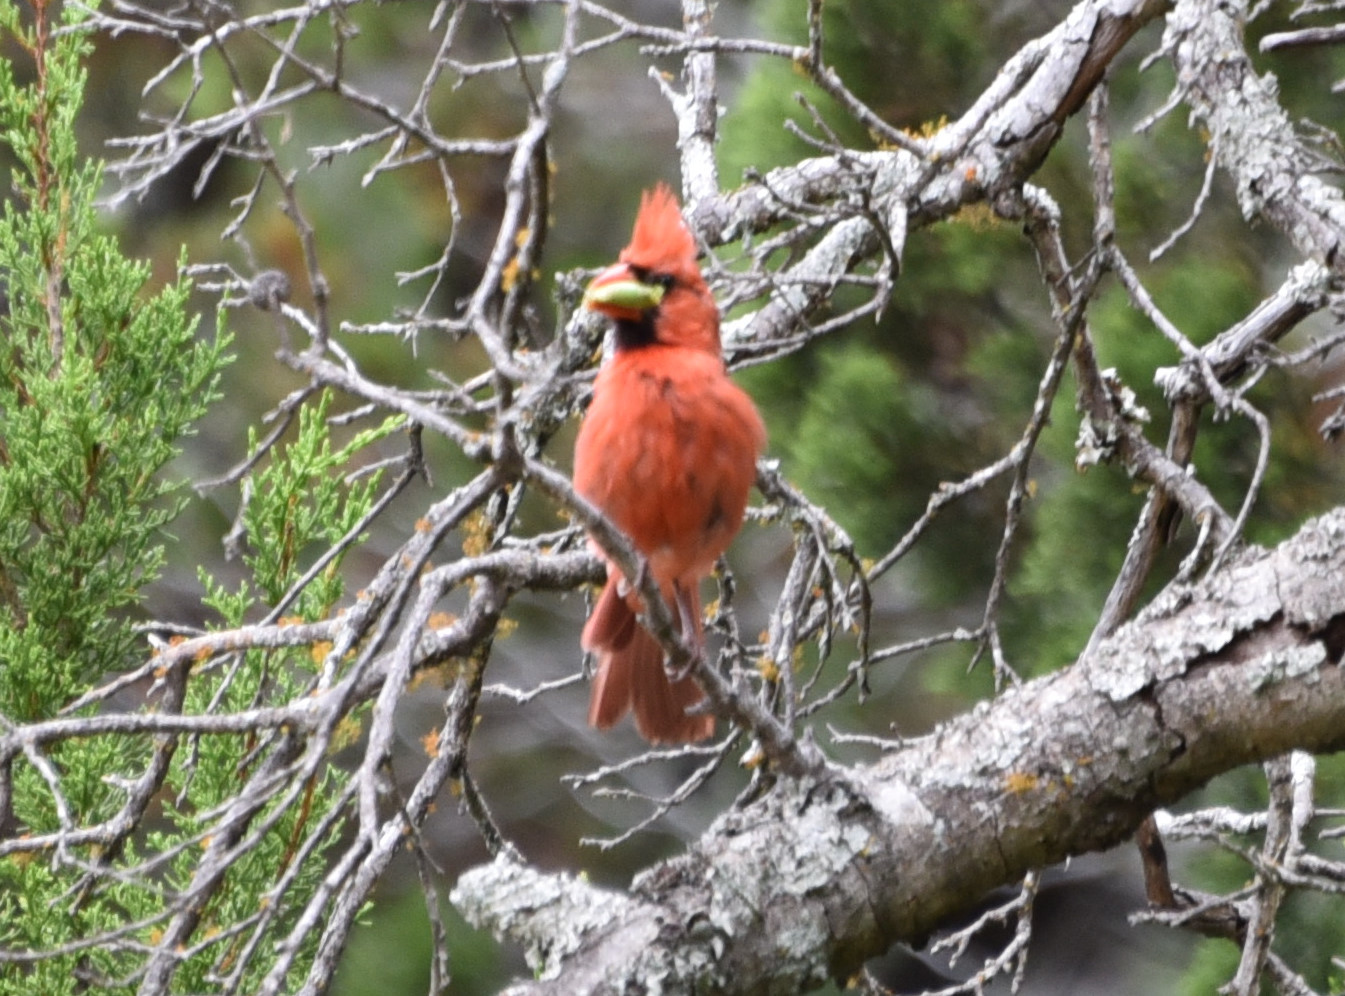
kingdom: Animalia
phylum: Chordata
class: Aves
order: Passeriformes
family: Cardinalidae
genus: Cardinalis
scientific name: Cardinalis cardinalis
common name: Northern cardinal
